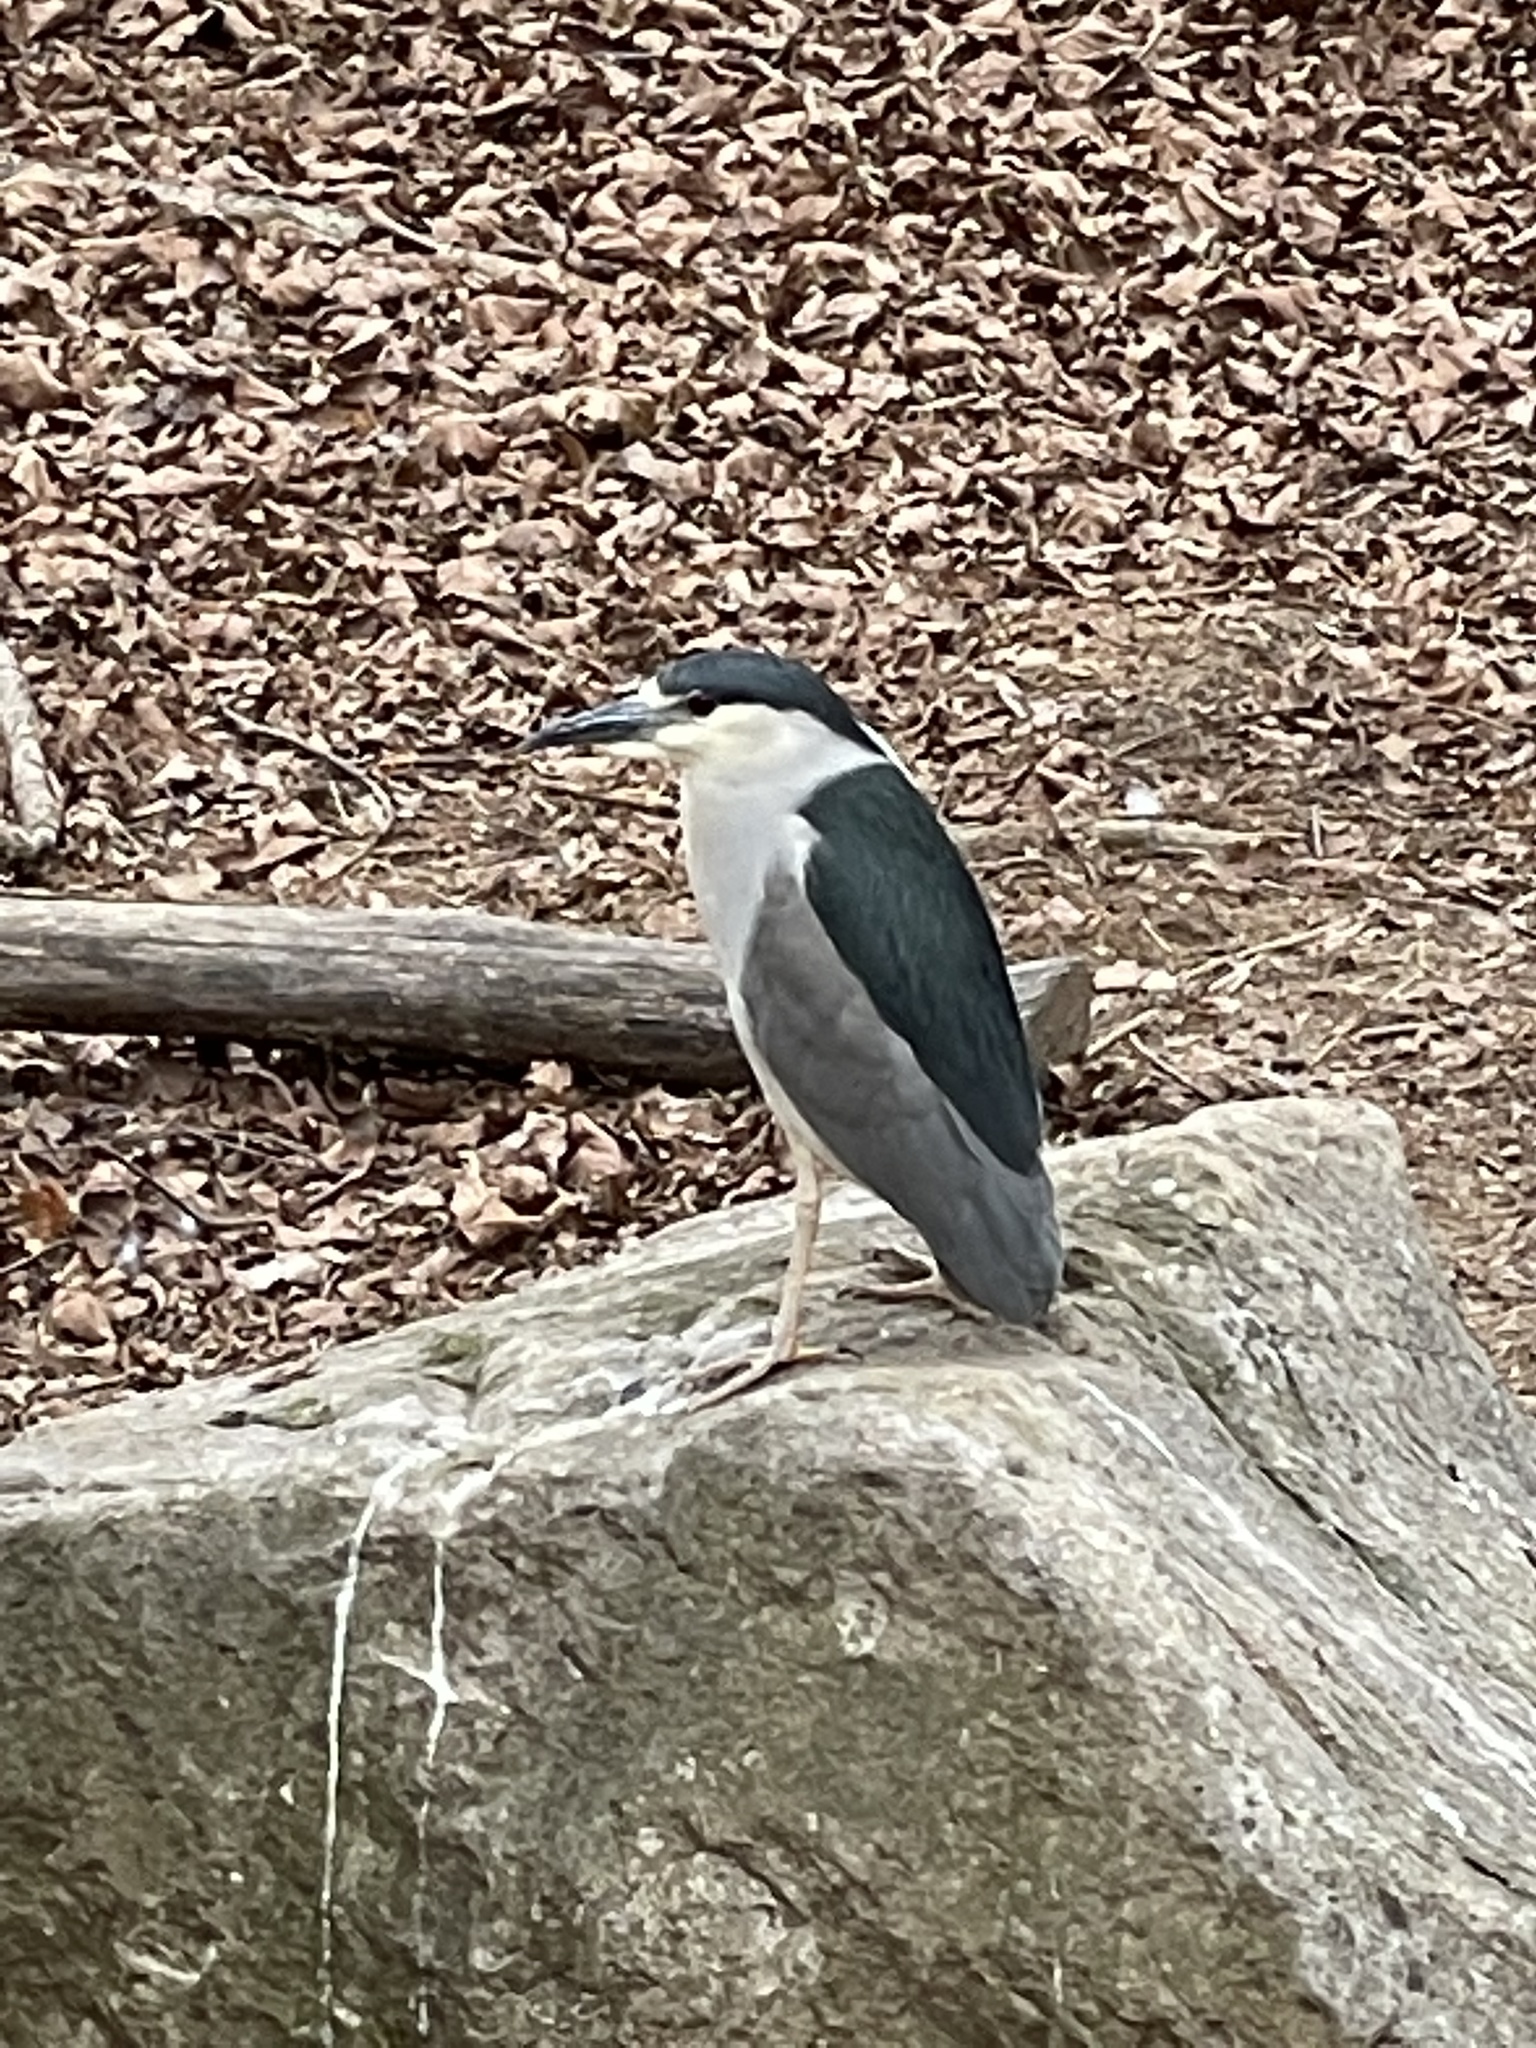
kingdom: Animalia
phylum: Chordata
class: Aves
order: Pelecaniformes
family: Ardeidae
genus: Nycticorax
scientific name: Nycticorax nycticorax
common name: Black-crowned night heron
